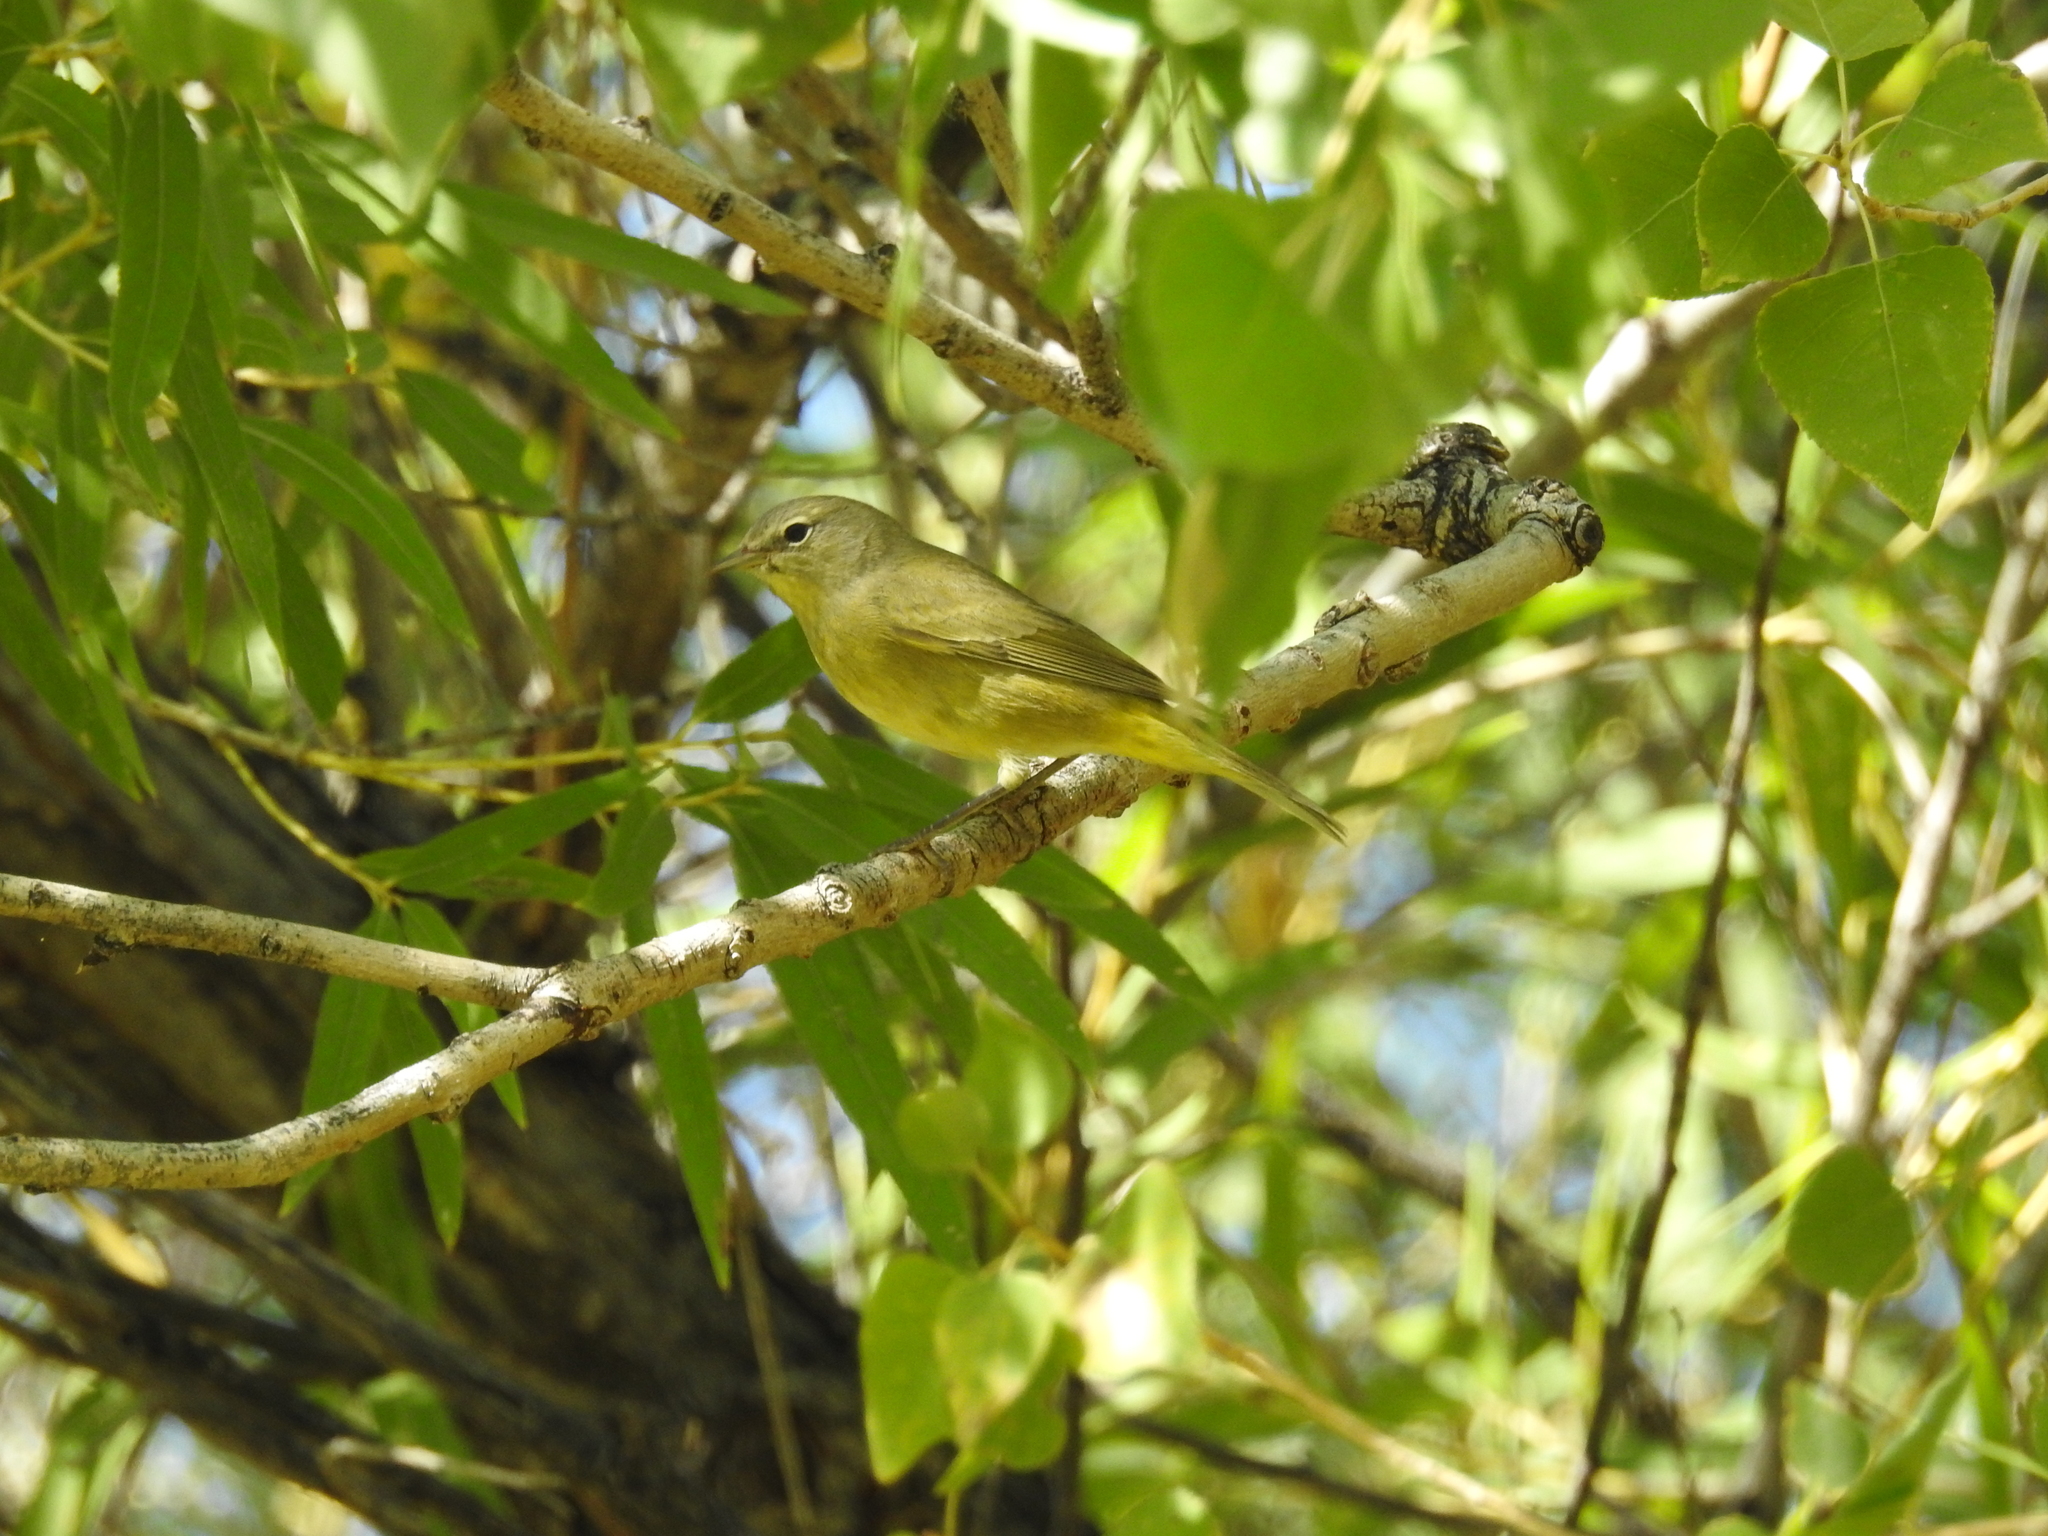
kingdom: Animalia
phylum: Chordata
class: Aves
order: Passeriformes
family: Parulidae
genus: Leiothlypis
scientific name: Leiothlypis celata
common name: Orange-crowned warbler
